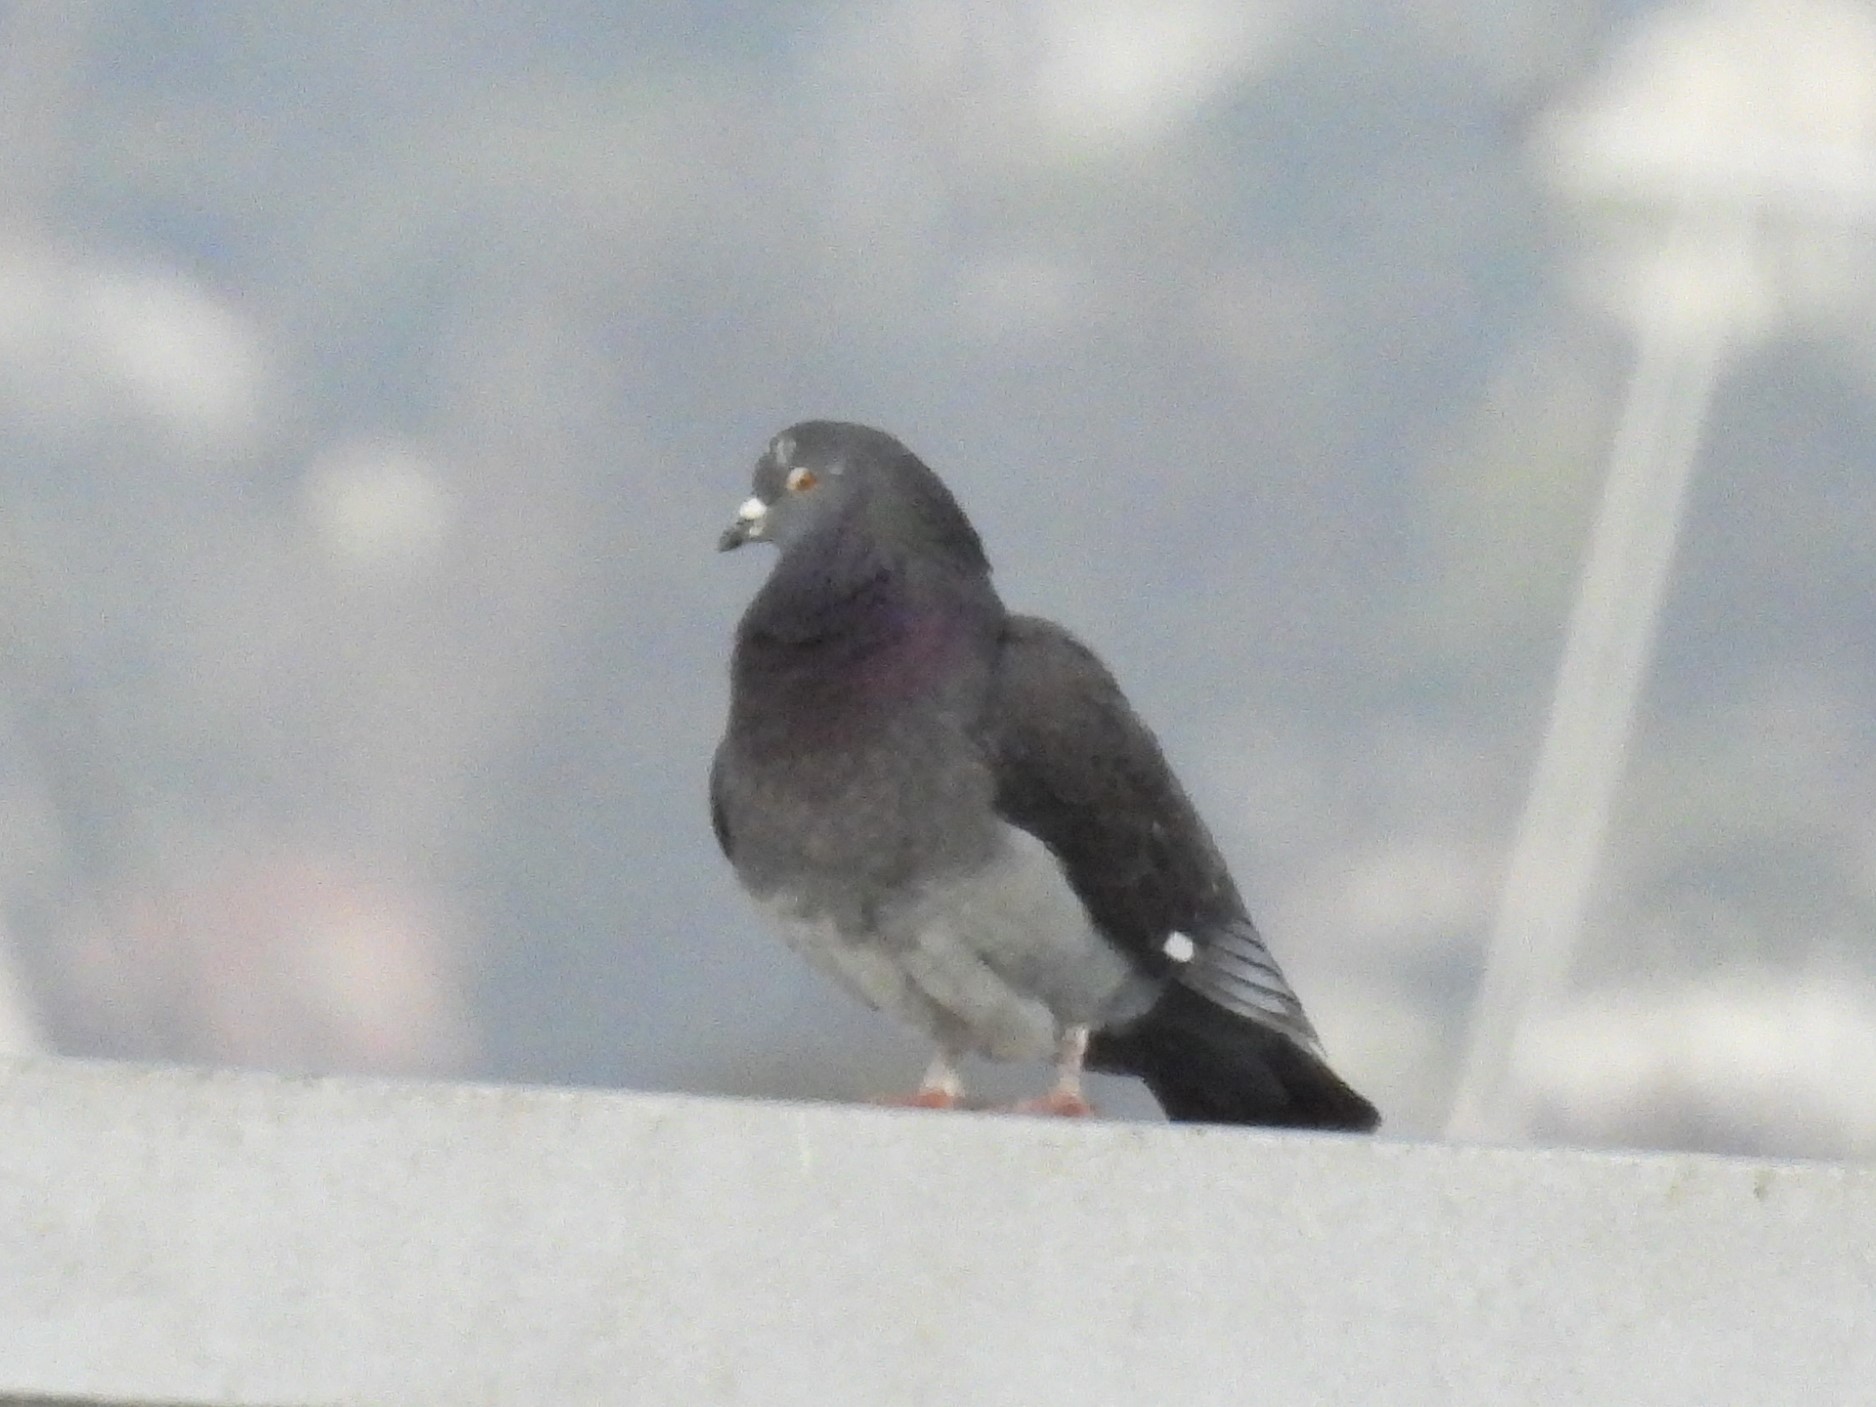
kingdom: Animalia
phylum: Chordata
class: Aves
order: Columbiformes
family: Columbidae
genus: Columba
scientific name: Columba livia
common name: Rock pigeon
